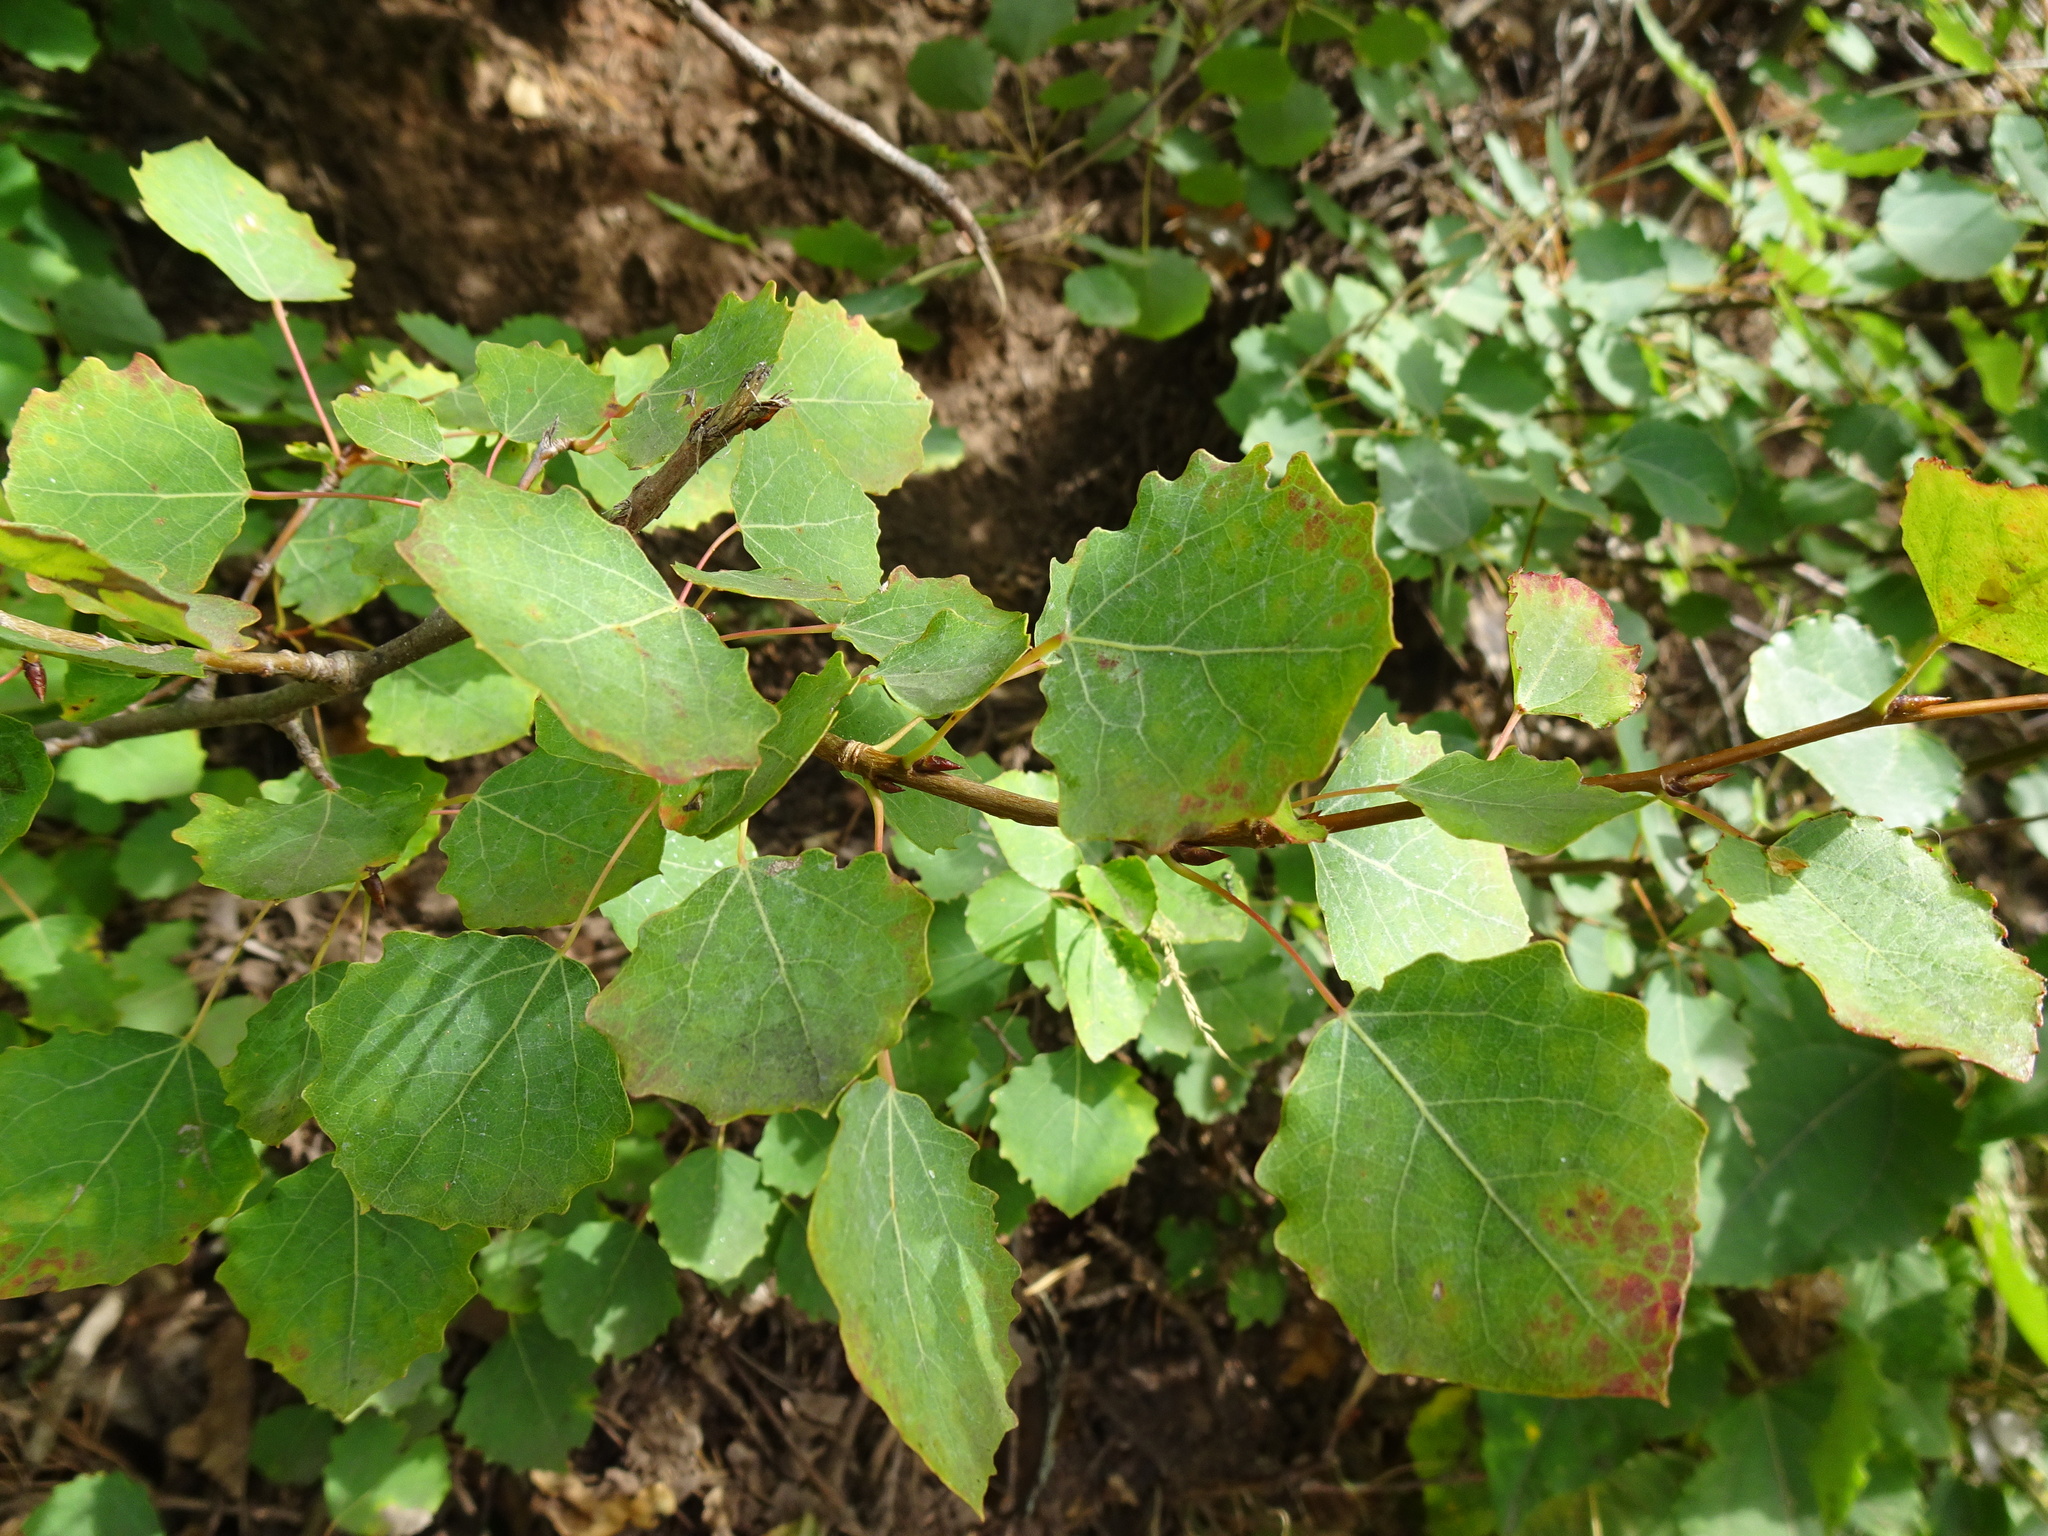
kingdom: Plantae
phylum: Tracheophyta
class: Magnoliopsida
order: Malpighiales
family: Salicaceae
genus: Populus
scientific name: Populus tremula
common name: European aspen
